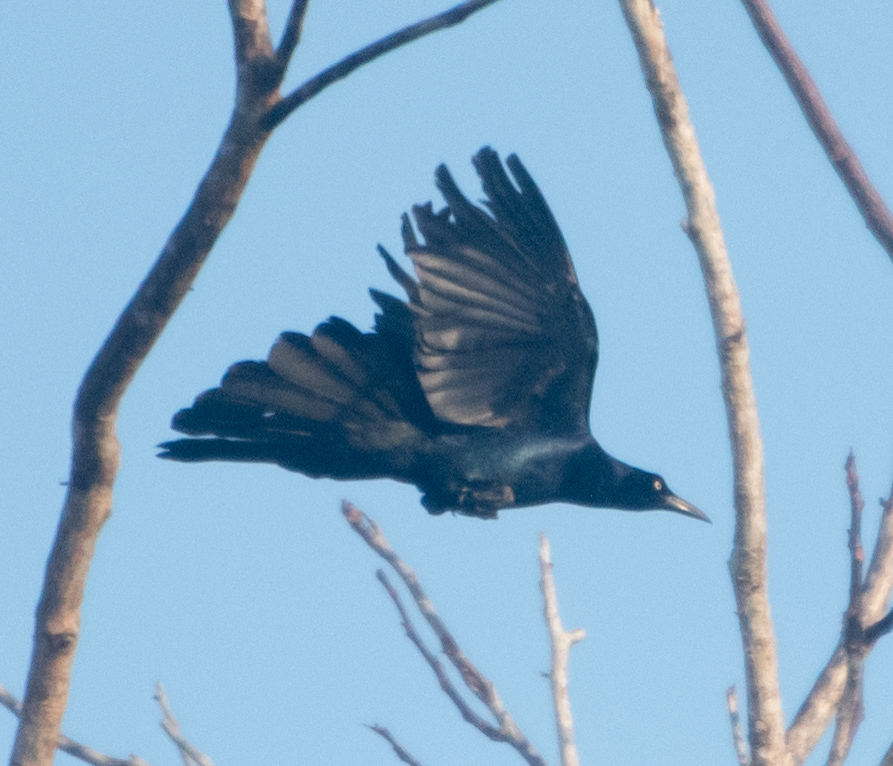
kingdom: Animalia
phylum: Chordata
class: Aves
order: Passeriformes
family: Icteridae
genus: Quiscalus
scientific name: Quiscalus mexicanus
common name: Great-tailed grackle
